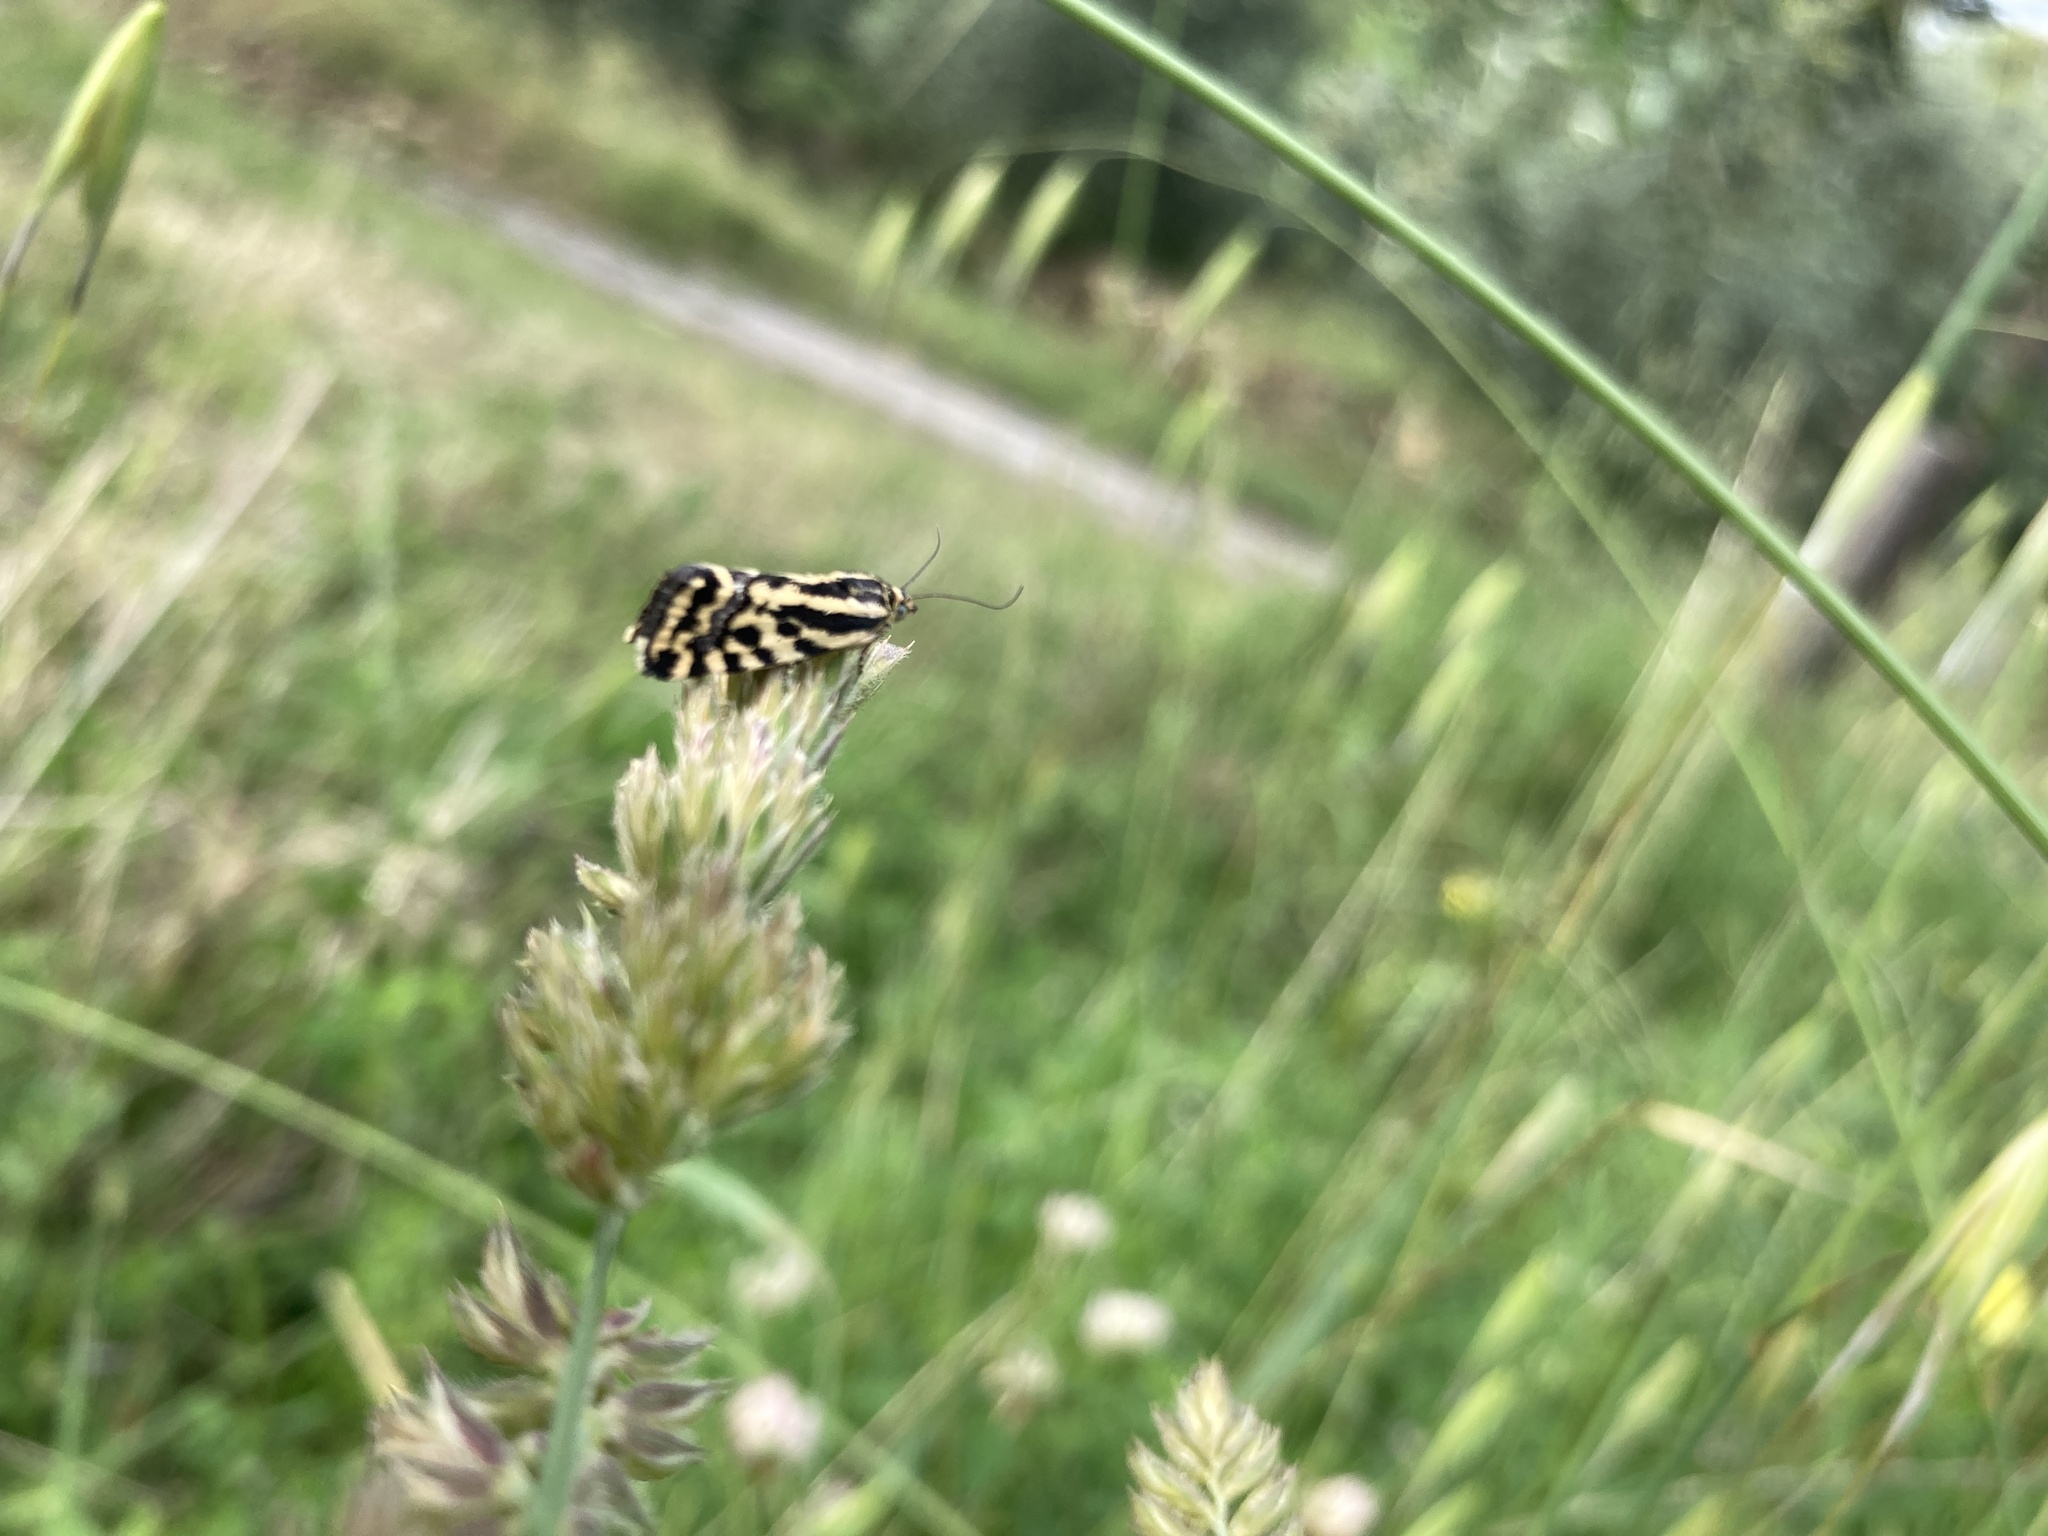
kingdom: Animalia
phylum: Arthropoda
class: Insecta
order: Lepidoptera
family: Noctuidae
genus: Acontia
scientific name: Acontia trabealis
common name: Spotted sulphur
